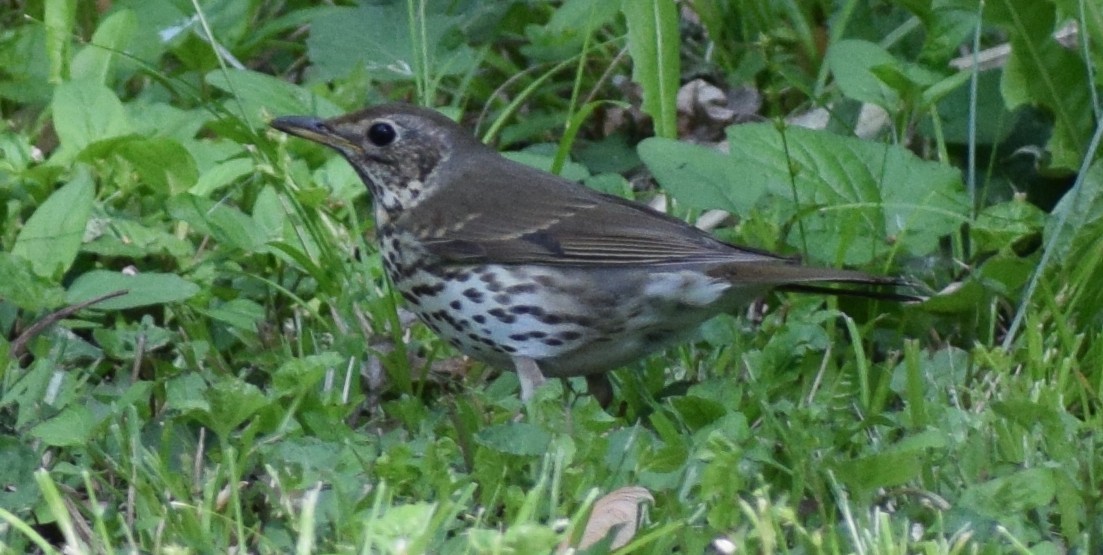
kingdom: Animalia
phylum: Chordata
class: Aves
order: Passeriformes
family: Turdidae
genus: Turdus
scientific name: Turdus philomelos
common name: Song thrush
